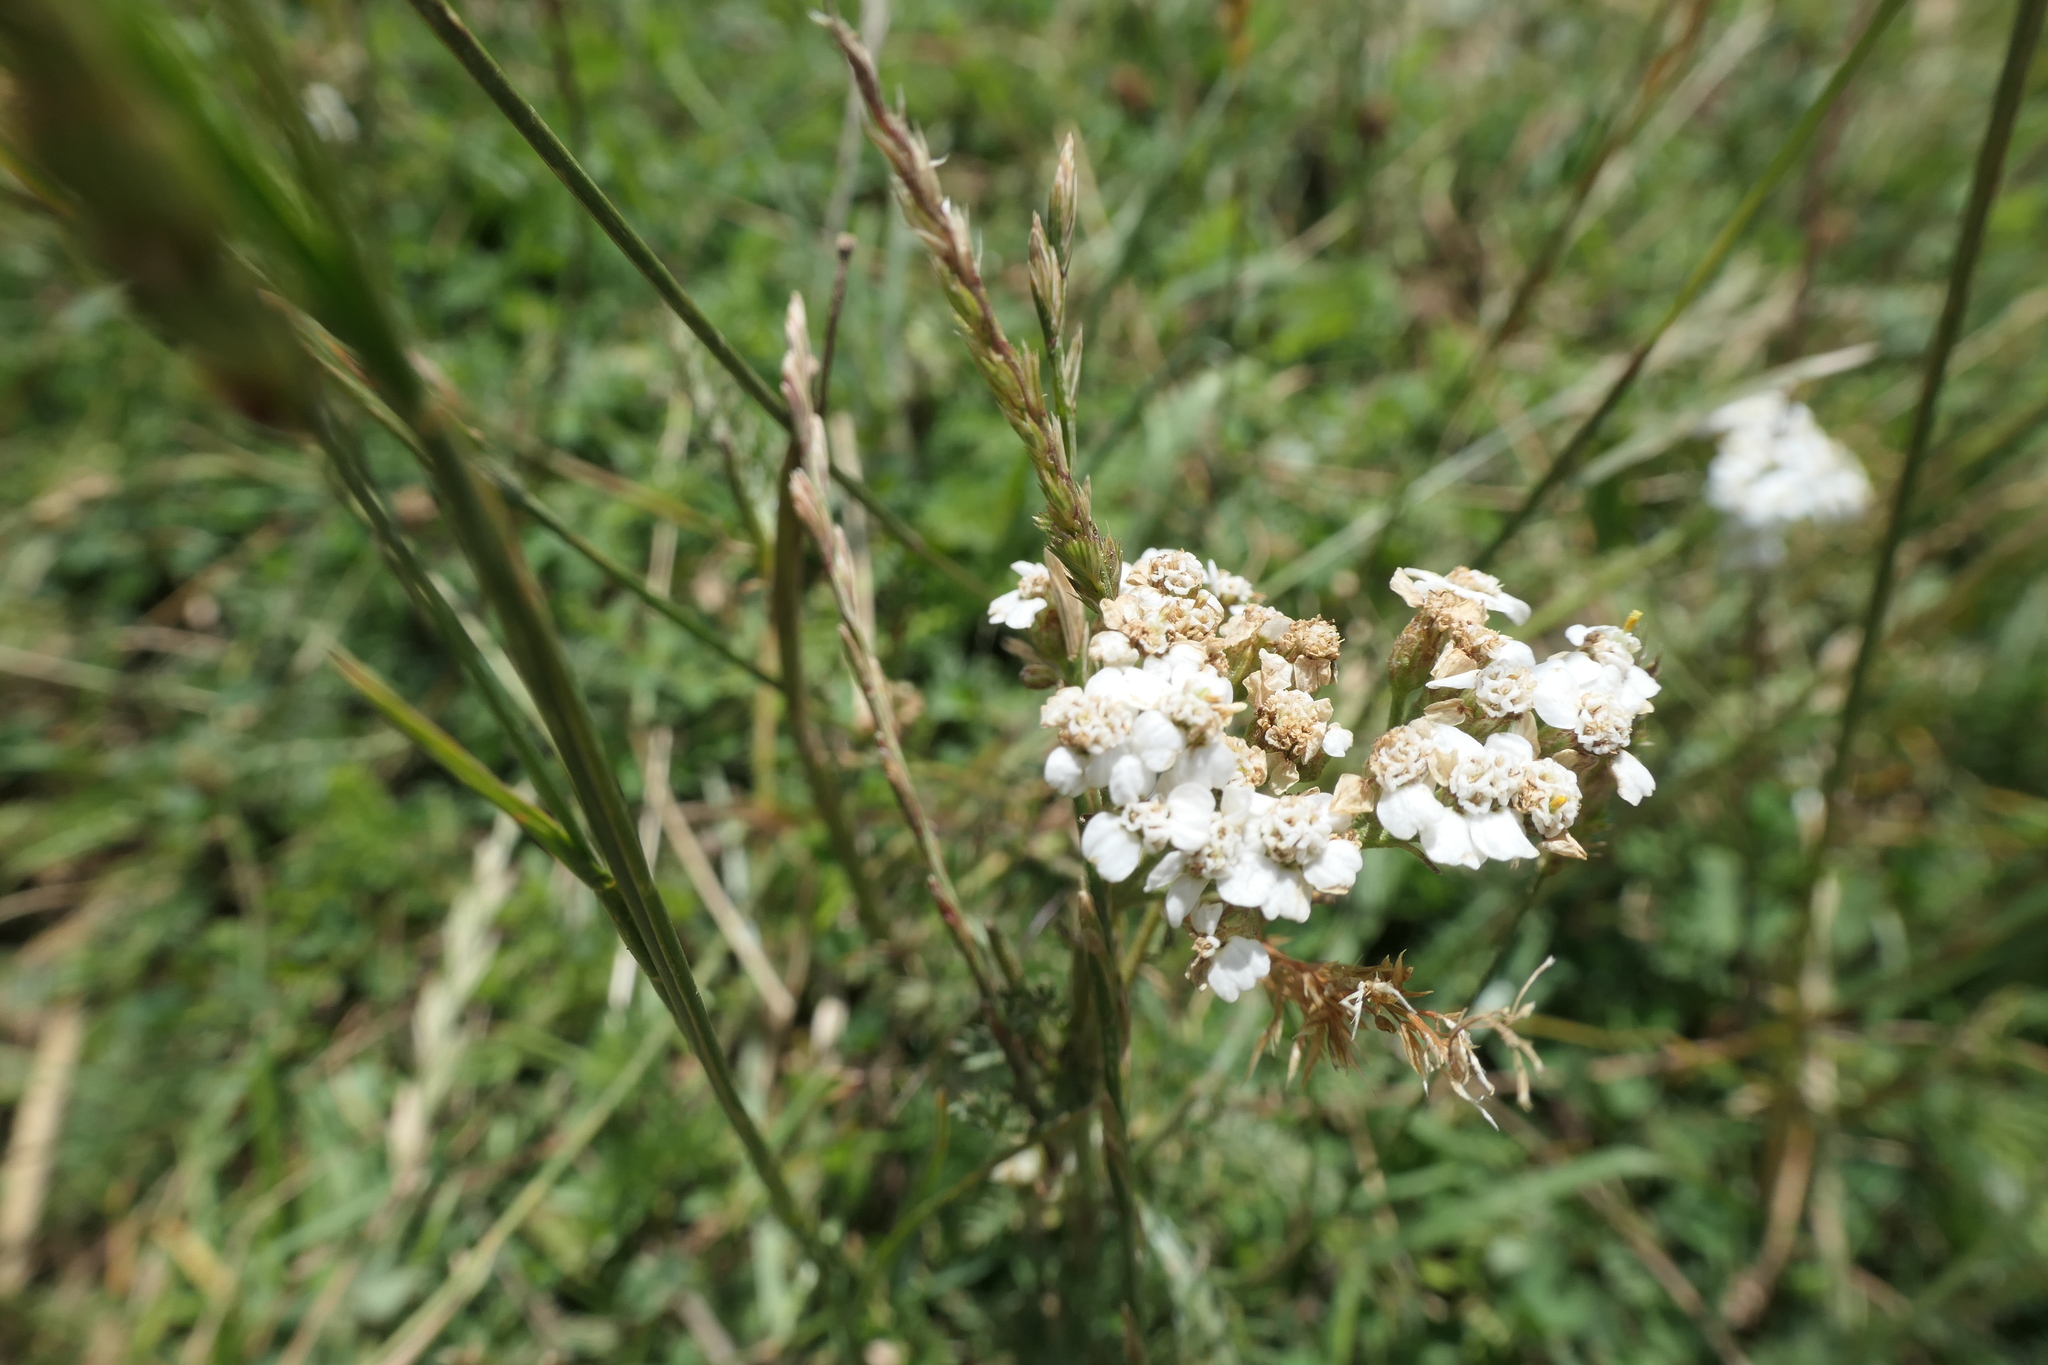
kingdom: Plantae
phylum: Tracheophyta
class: Magnoliopsida
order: Asterales
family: Asteraceae
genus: Achillea
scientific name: Achillea millefolium
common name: Yarrow
